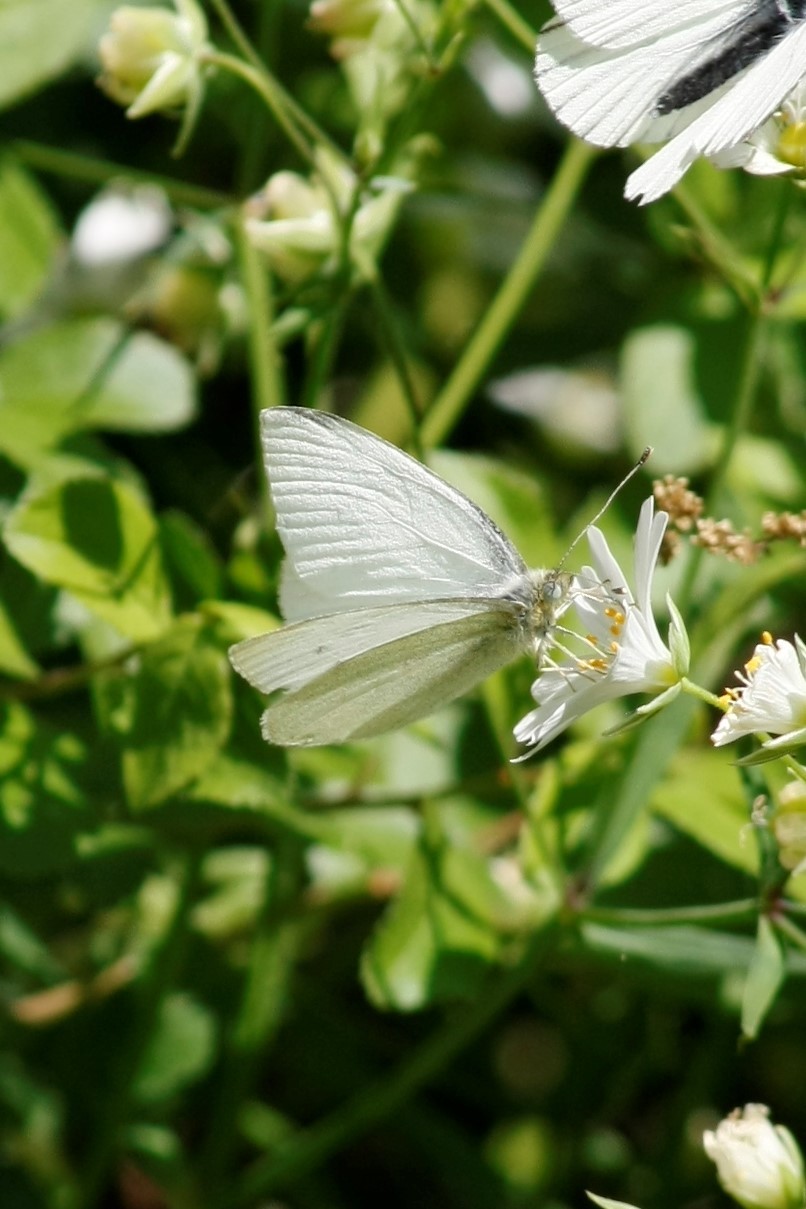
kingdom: Animalia
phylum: Arthropoda
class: Insecta
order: Lepidoptera
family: Pieridae
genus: Pieris
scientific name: Pieris rapae
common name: Small white
